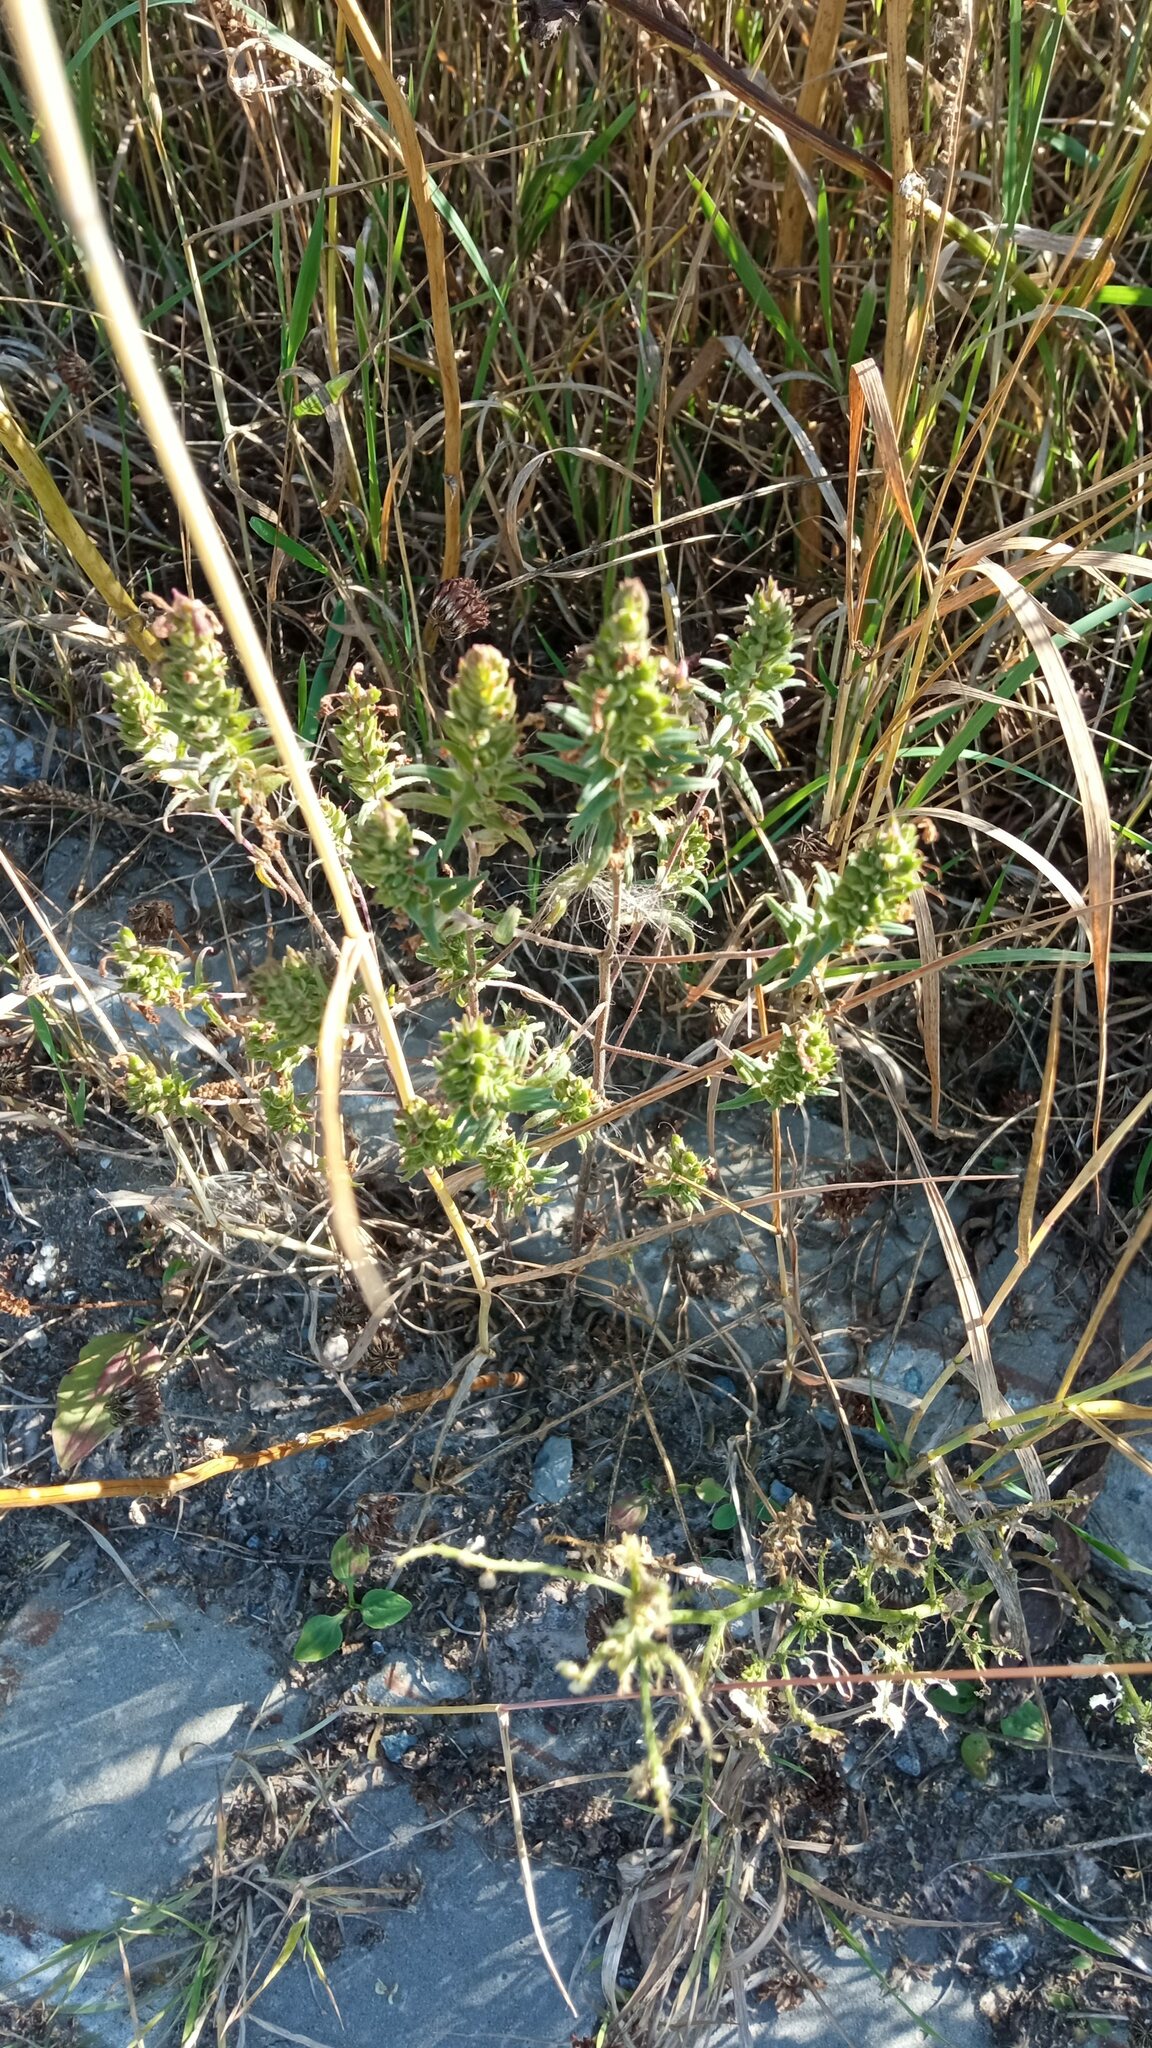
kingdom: Plantae
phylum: Tracheophyta
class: Magnoliopsida
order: Lamiales
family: Orobanchaceae
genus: Odontites
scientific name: Odontites vulgaris
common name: Broomrape
